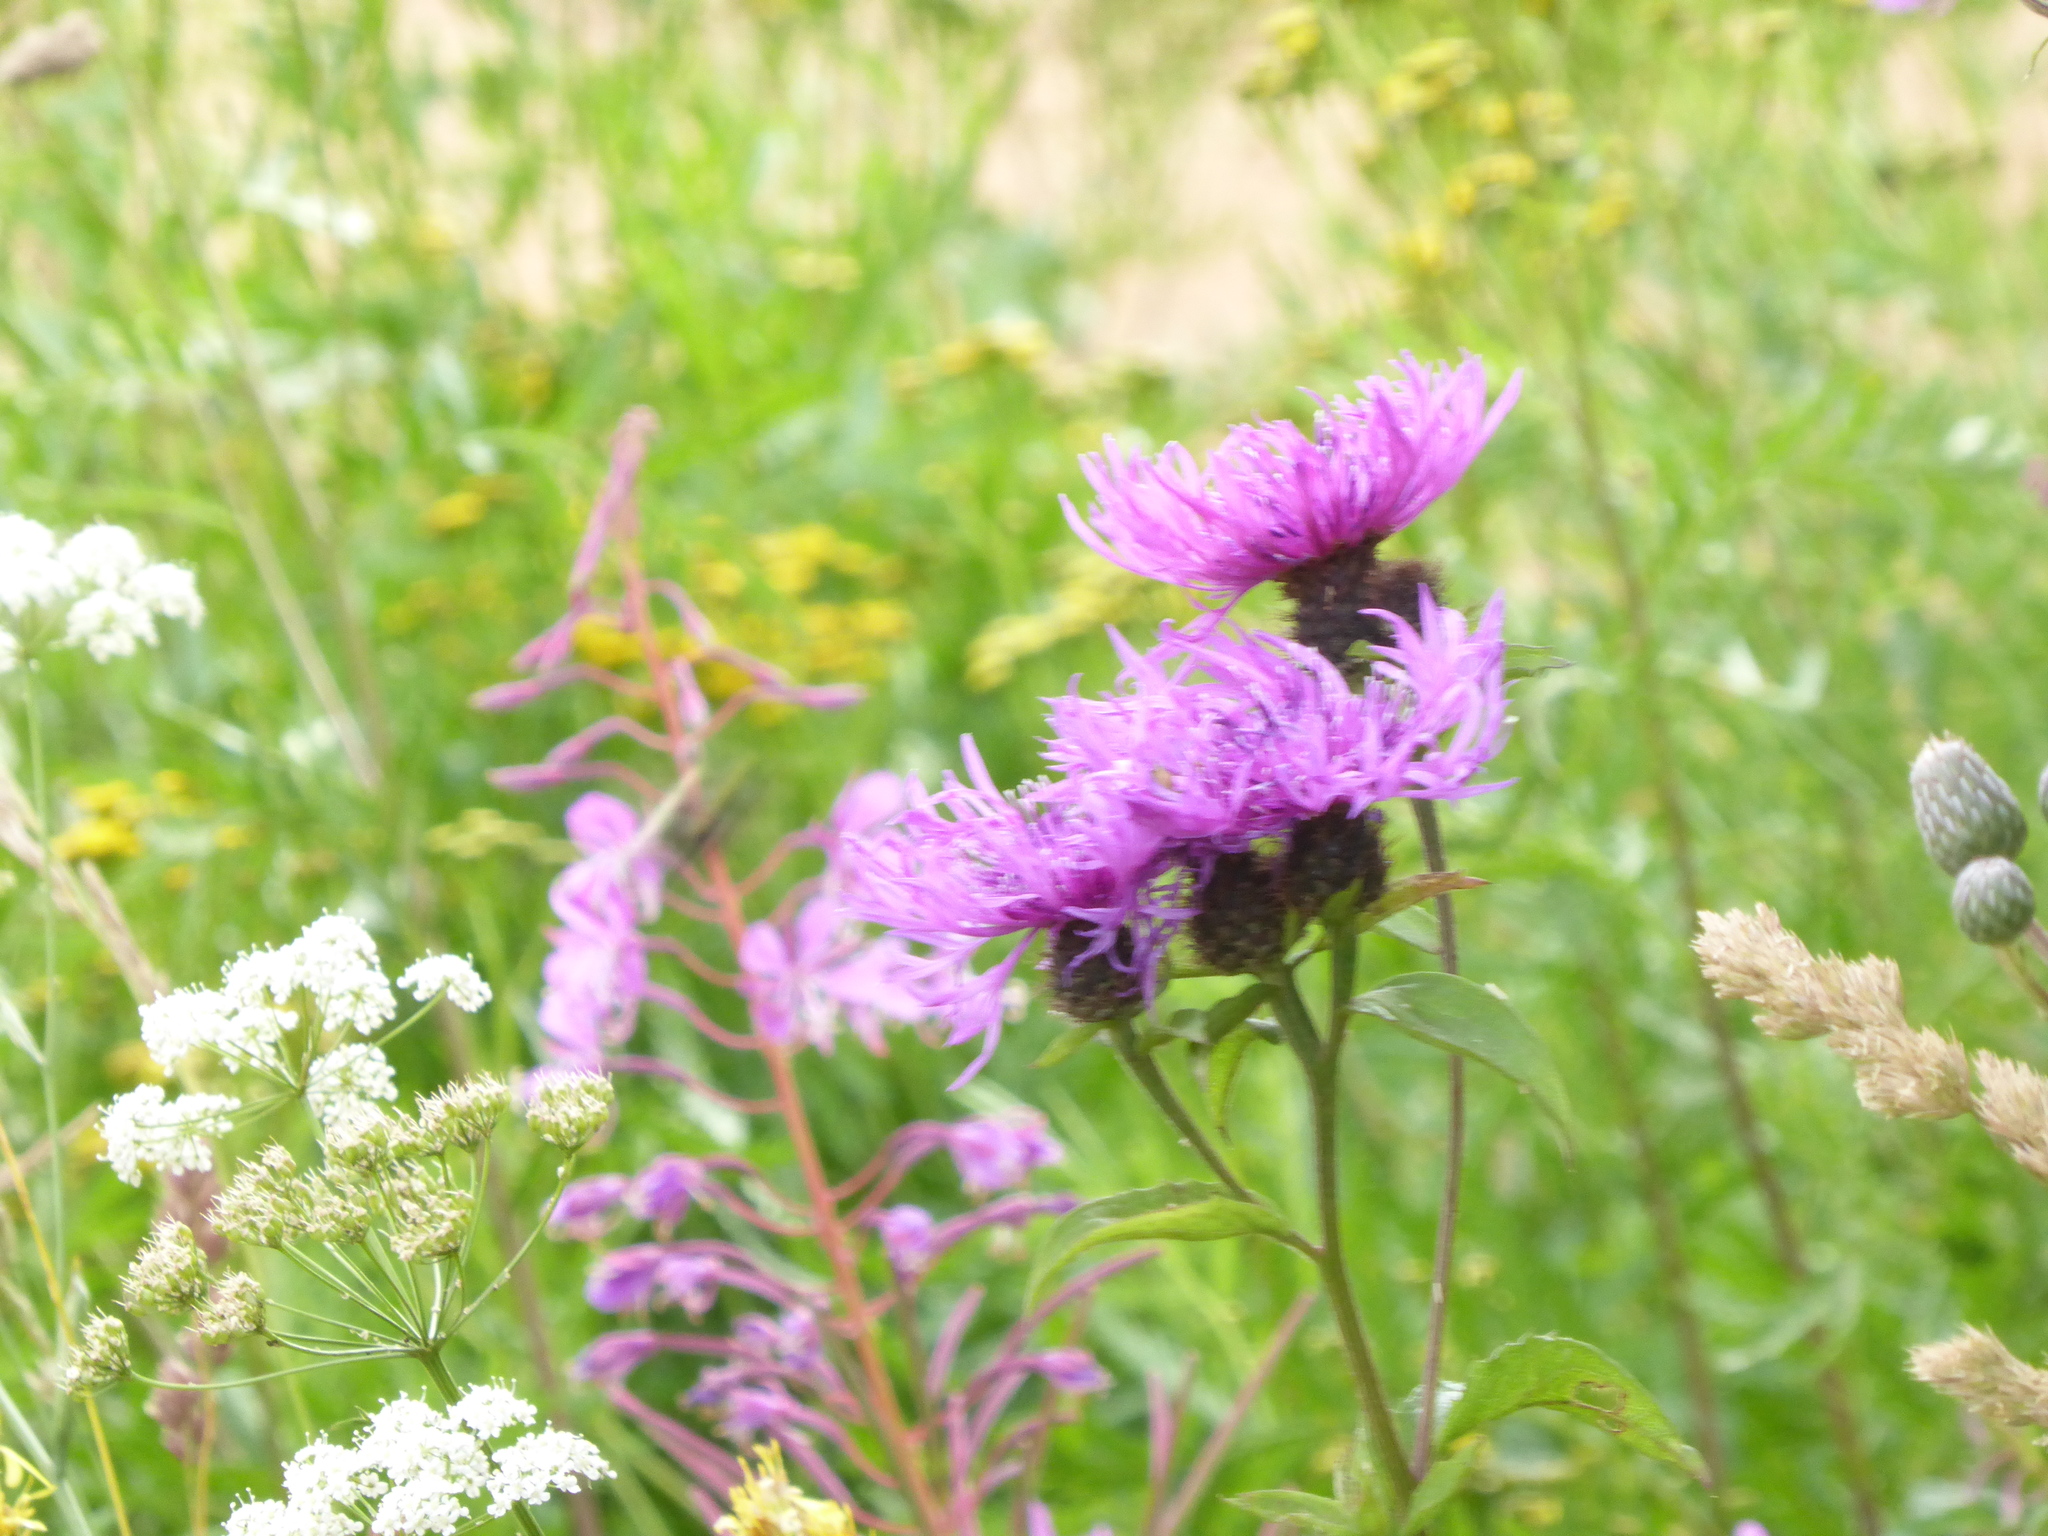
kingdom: Plantae
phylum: Tracheophyta
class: Magnoliopsida
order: Asterales
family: Asteraceae
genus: Centaurea
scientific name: Centaurea phrygia
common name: Wig knapweed
